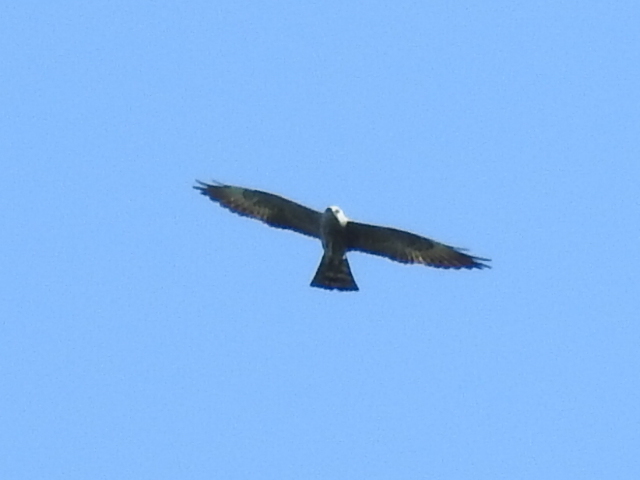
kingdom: Animalia
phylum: Chordata
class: Aves
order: Accipitriformes
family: Accipitridae
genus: Ictinia
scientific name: Ictinia mississippiensis
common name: Mississippi kite
